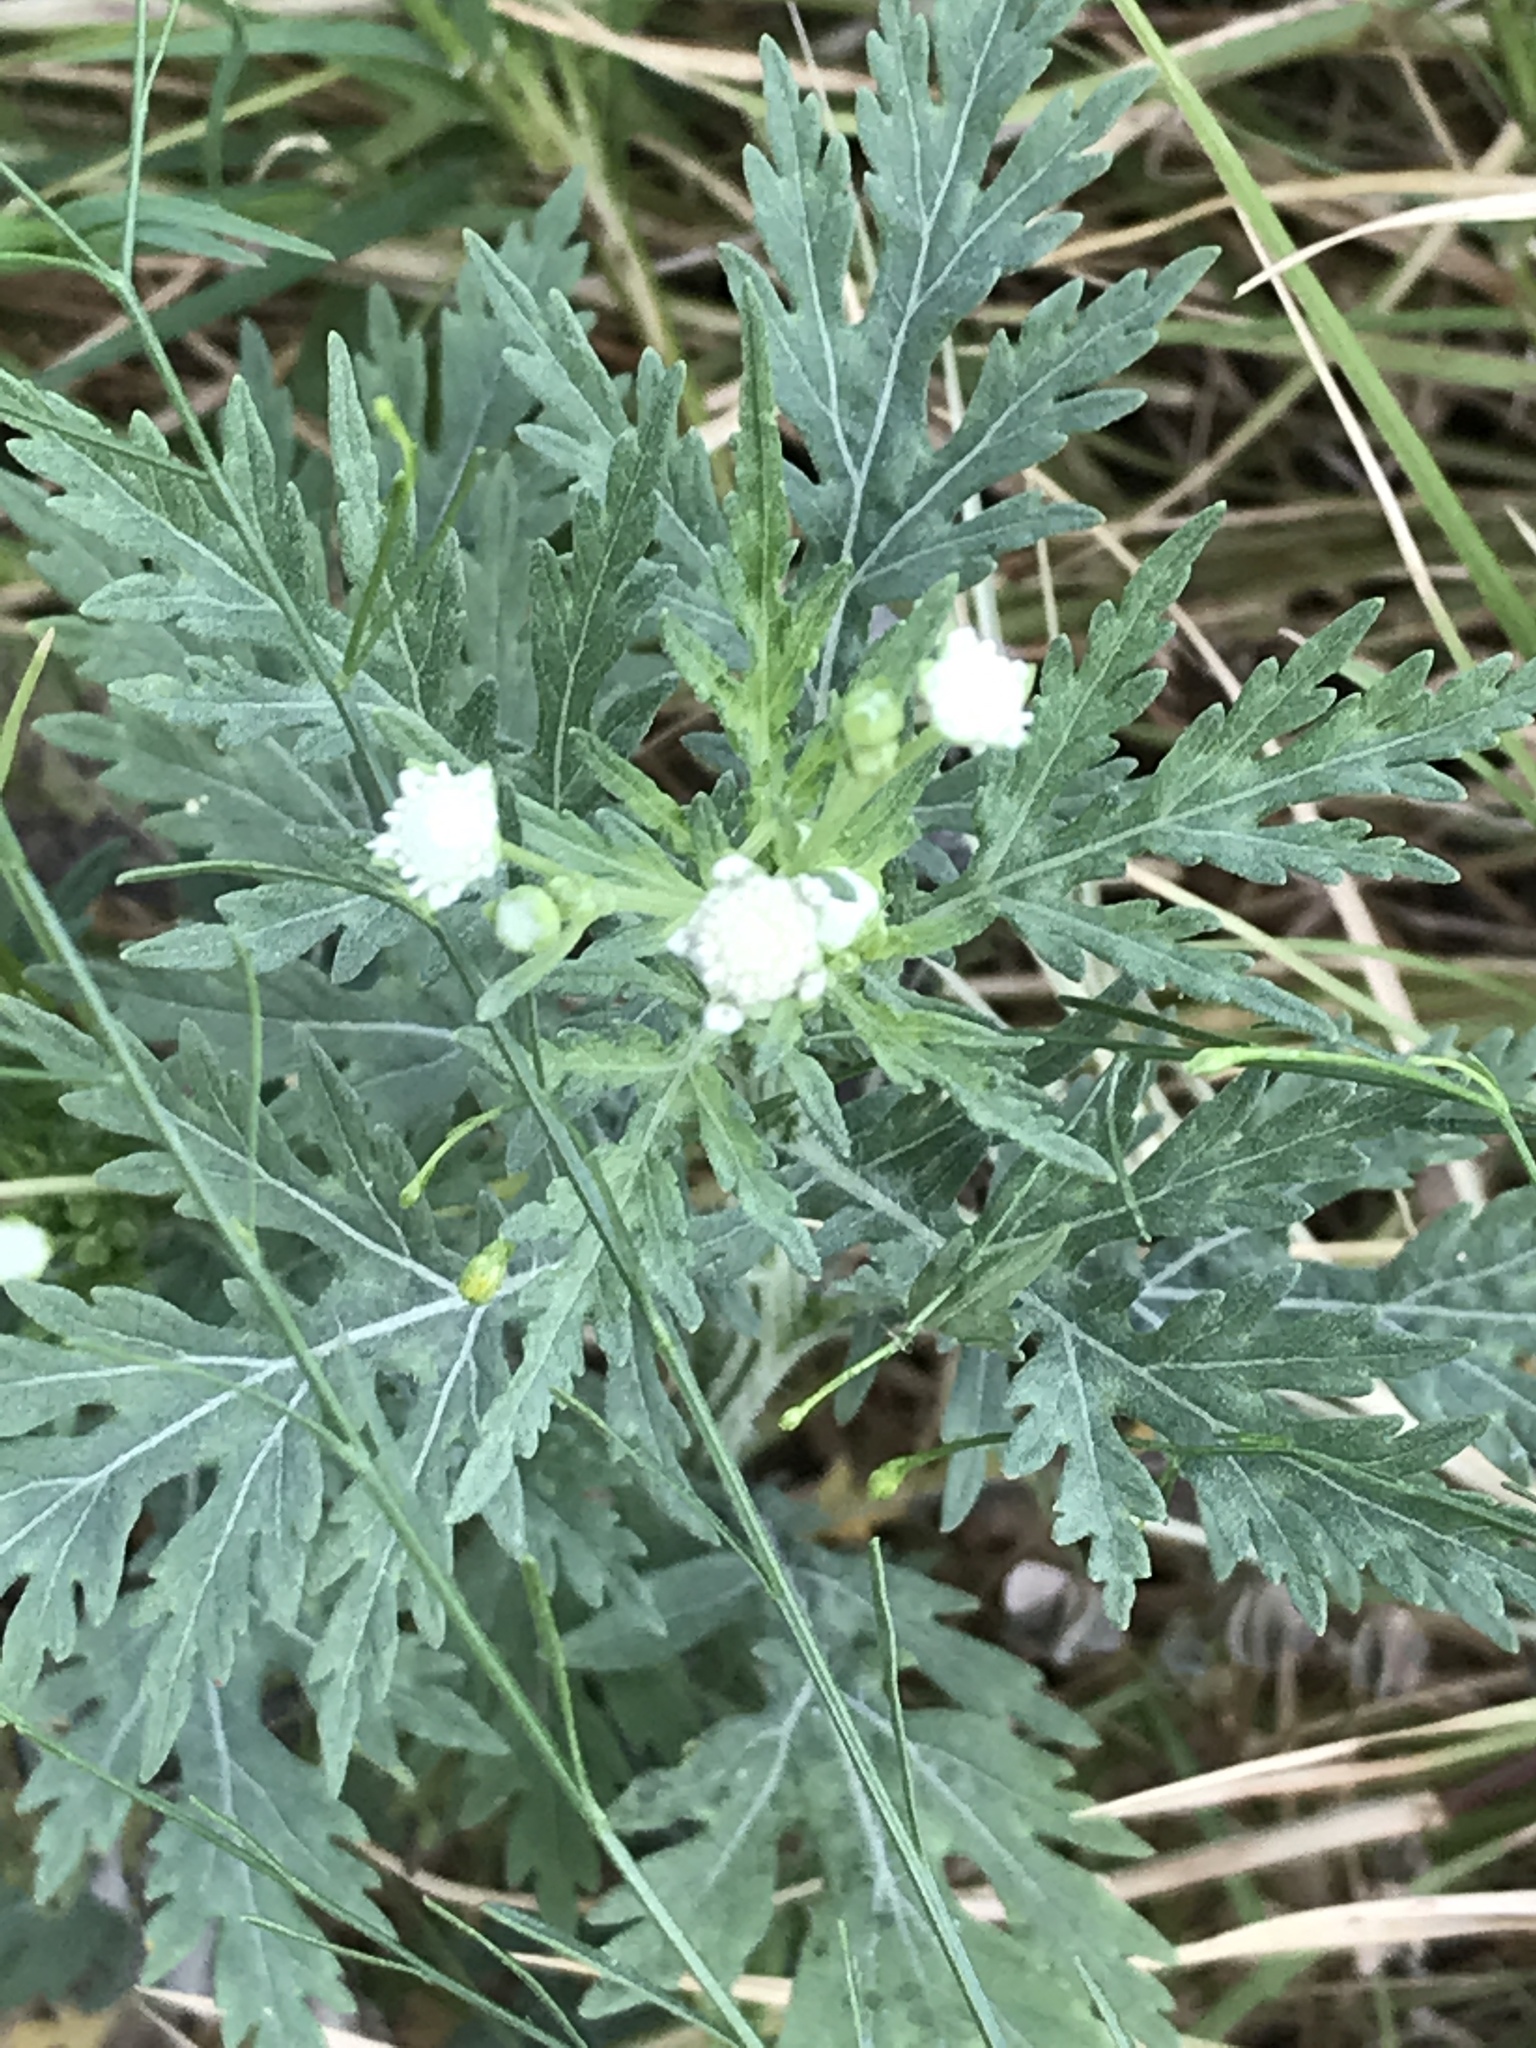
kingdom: Plantae
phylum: Tracheophyta
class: Magnoliopsida
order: Asterales
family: Asteraceae
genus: Parthenium
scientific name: Parthenium hysterophorus
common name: Santa maria feverfew
